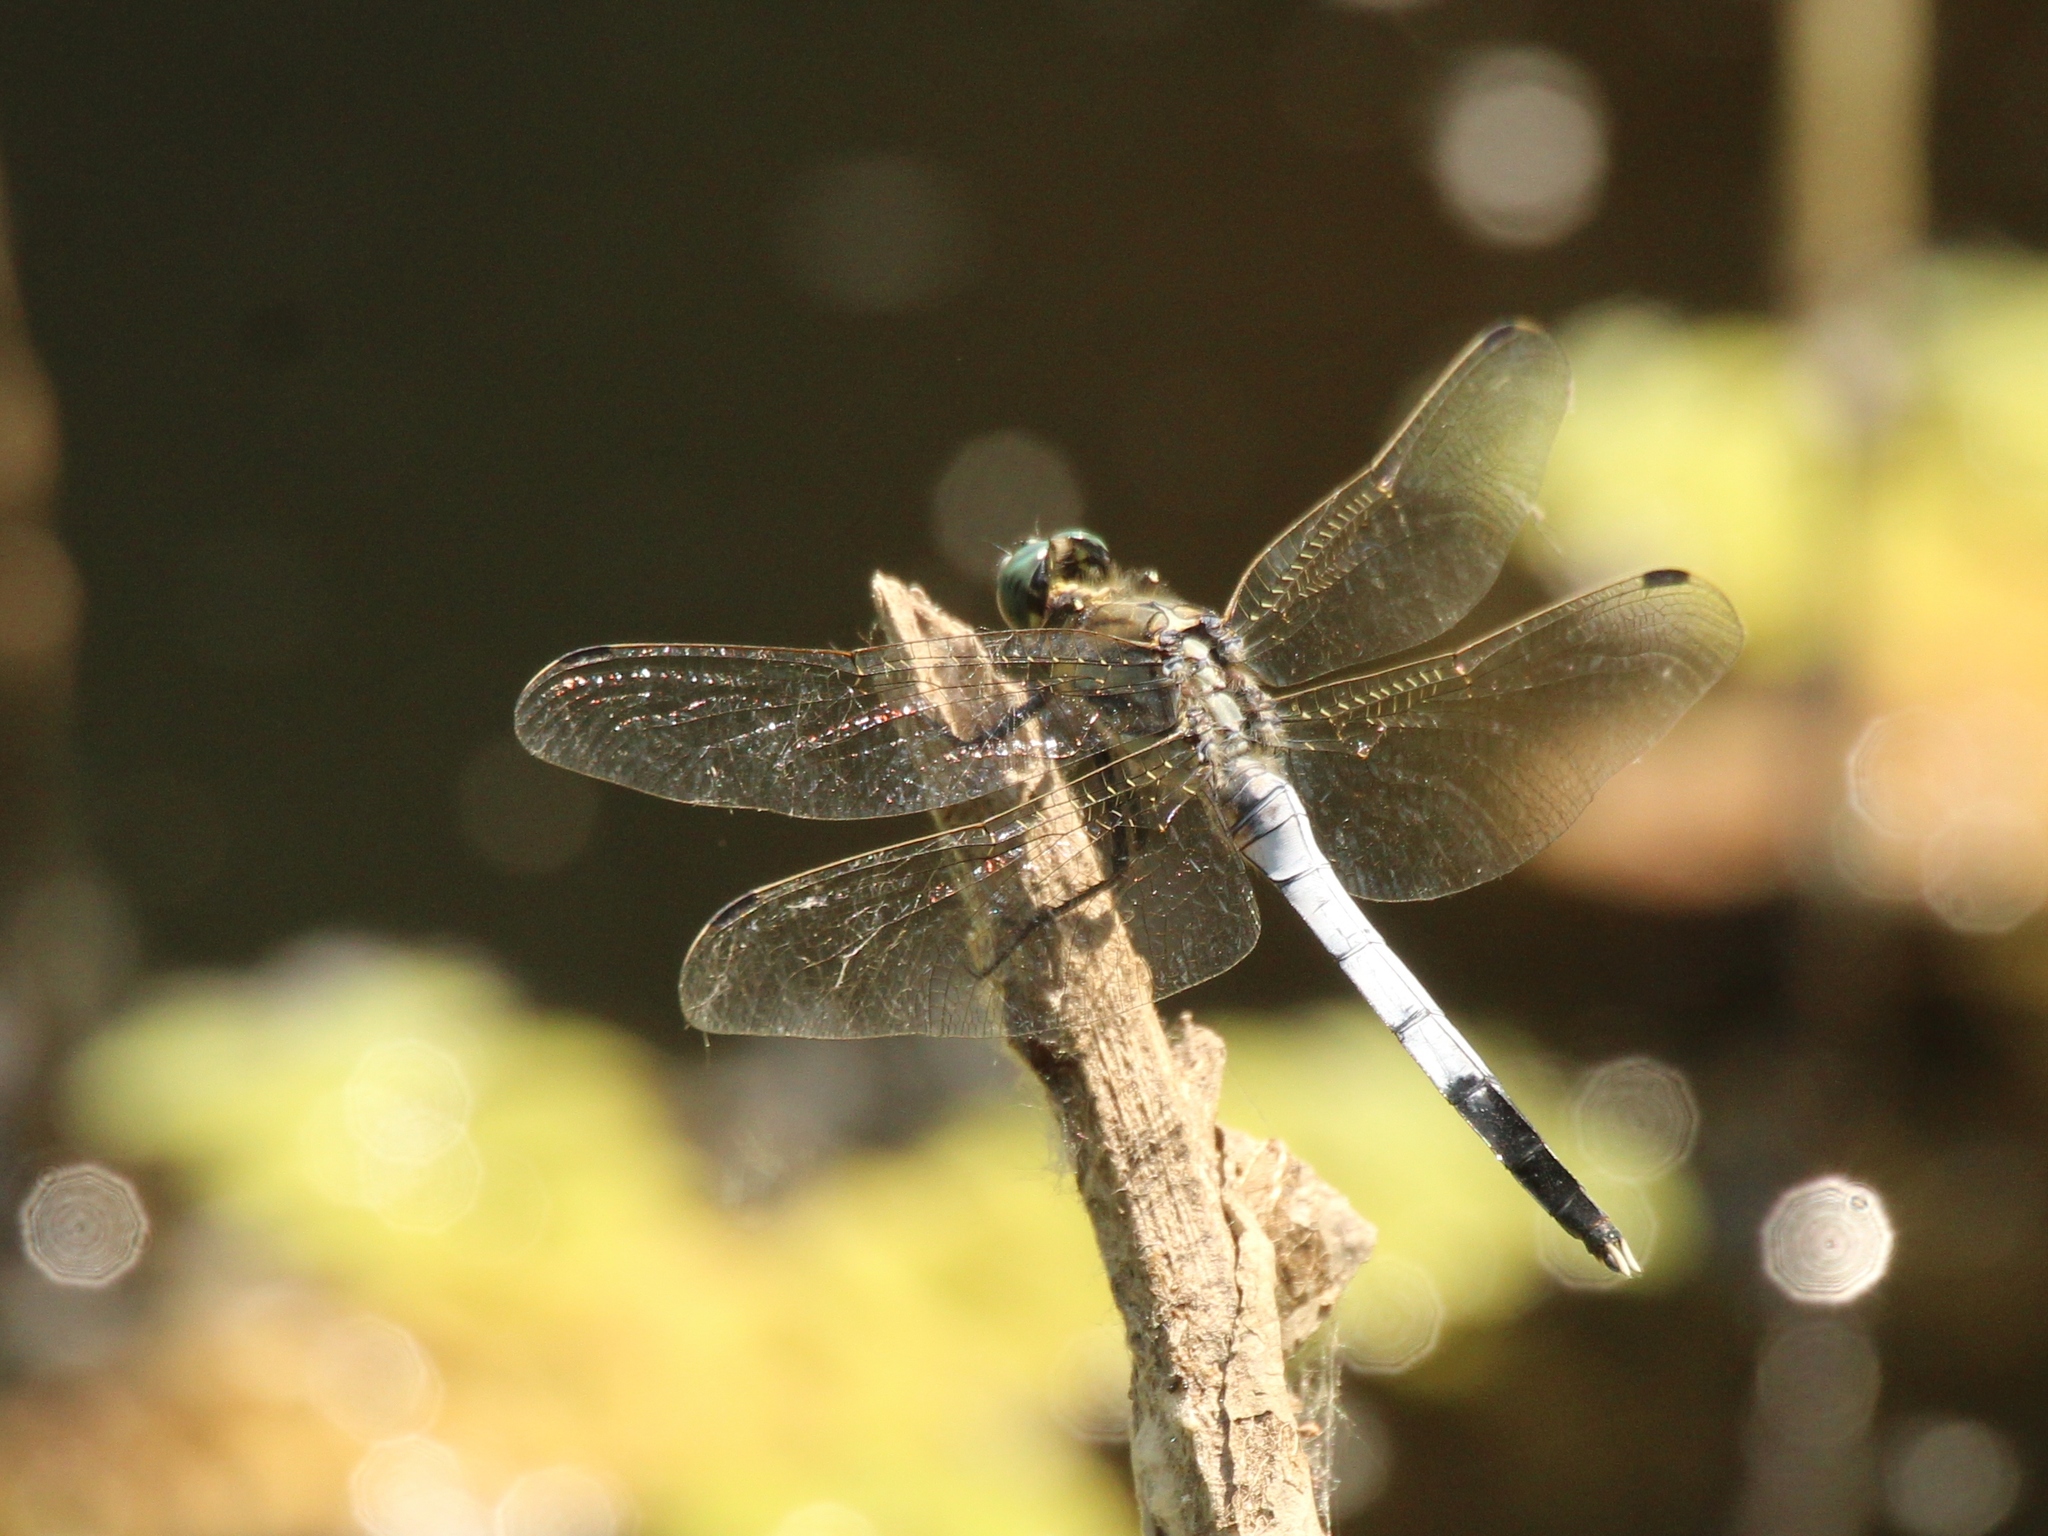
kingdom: Animalia
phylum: Arthropoda
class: Insecta
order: Odonata
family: Libellulidae
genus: Orthetrum
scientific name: Orthetrum albistylum
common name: White-tailed skimmer
